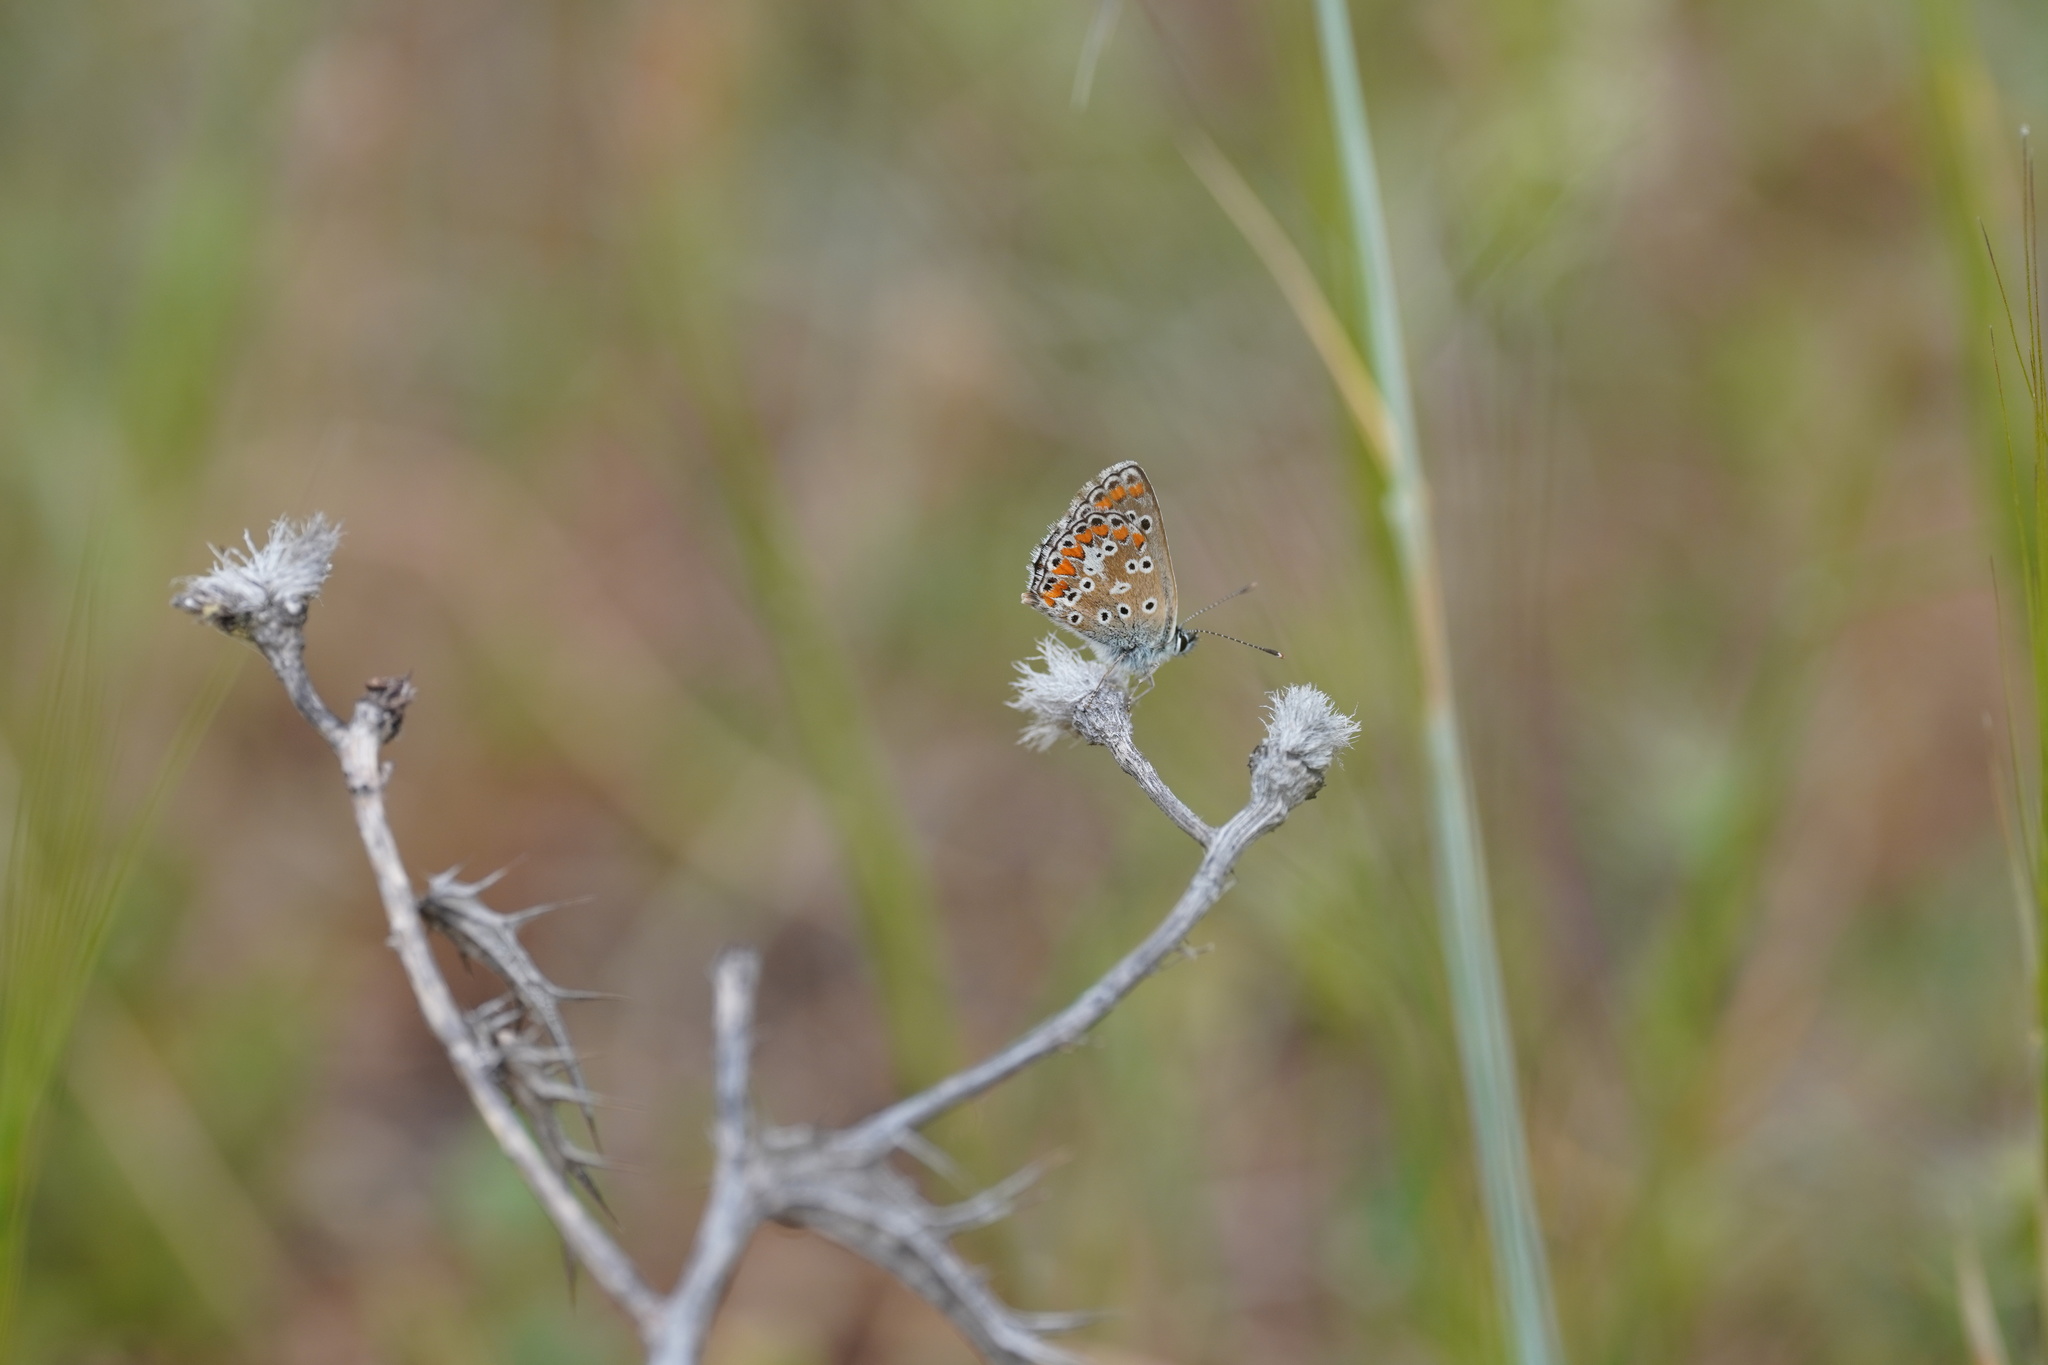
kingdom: Animalia
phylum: Arthropoda
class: Insecta
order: Lepidoptera
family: Lycaenidae
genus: Aricia
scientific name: Aricia cramera
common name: Eschscholtz´s brown  argus
